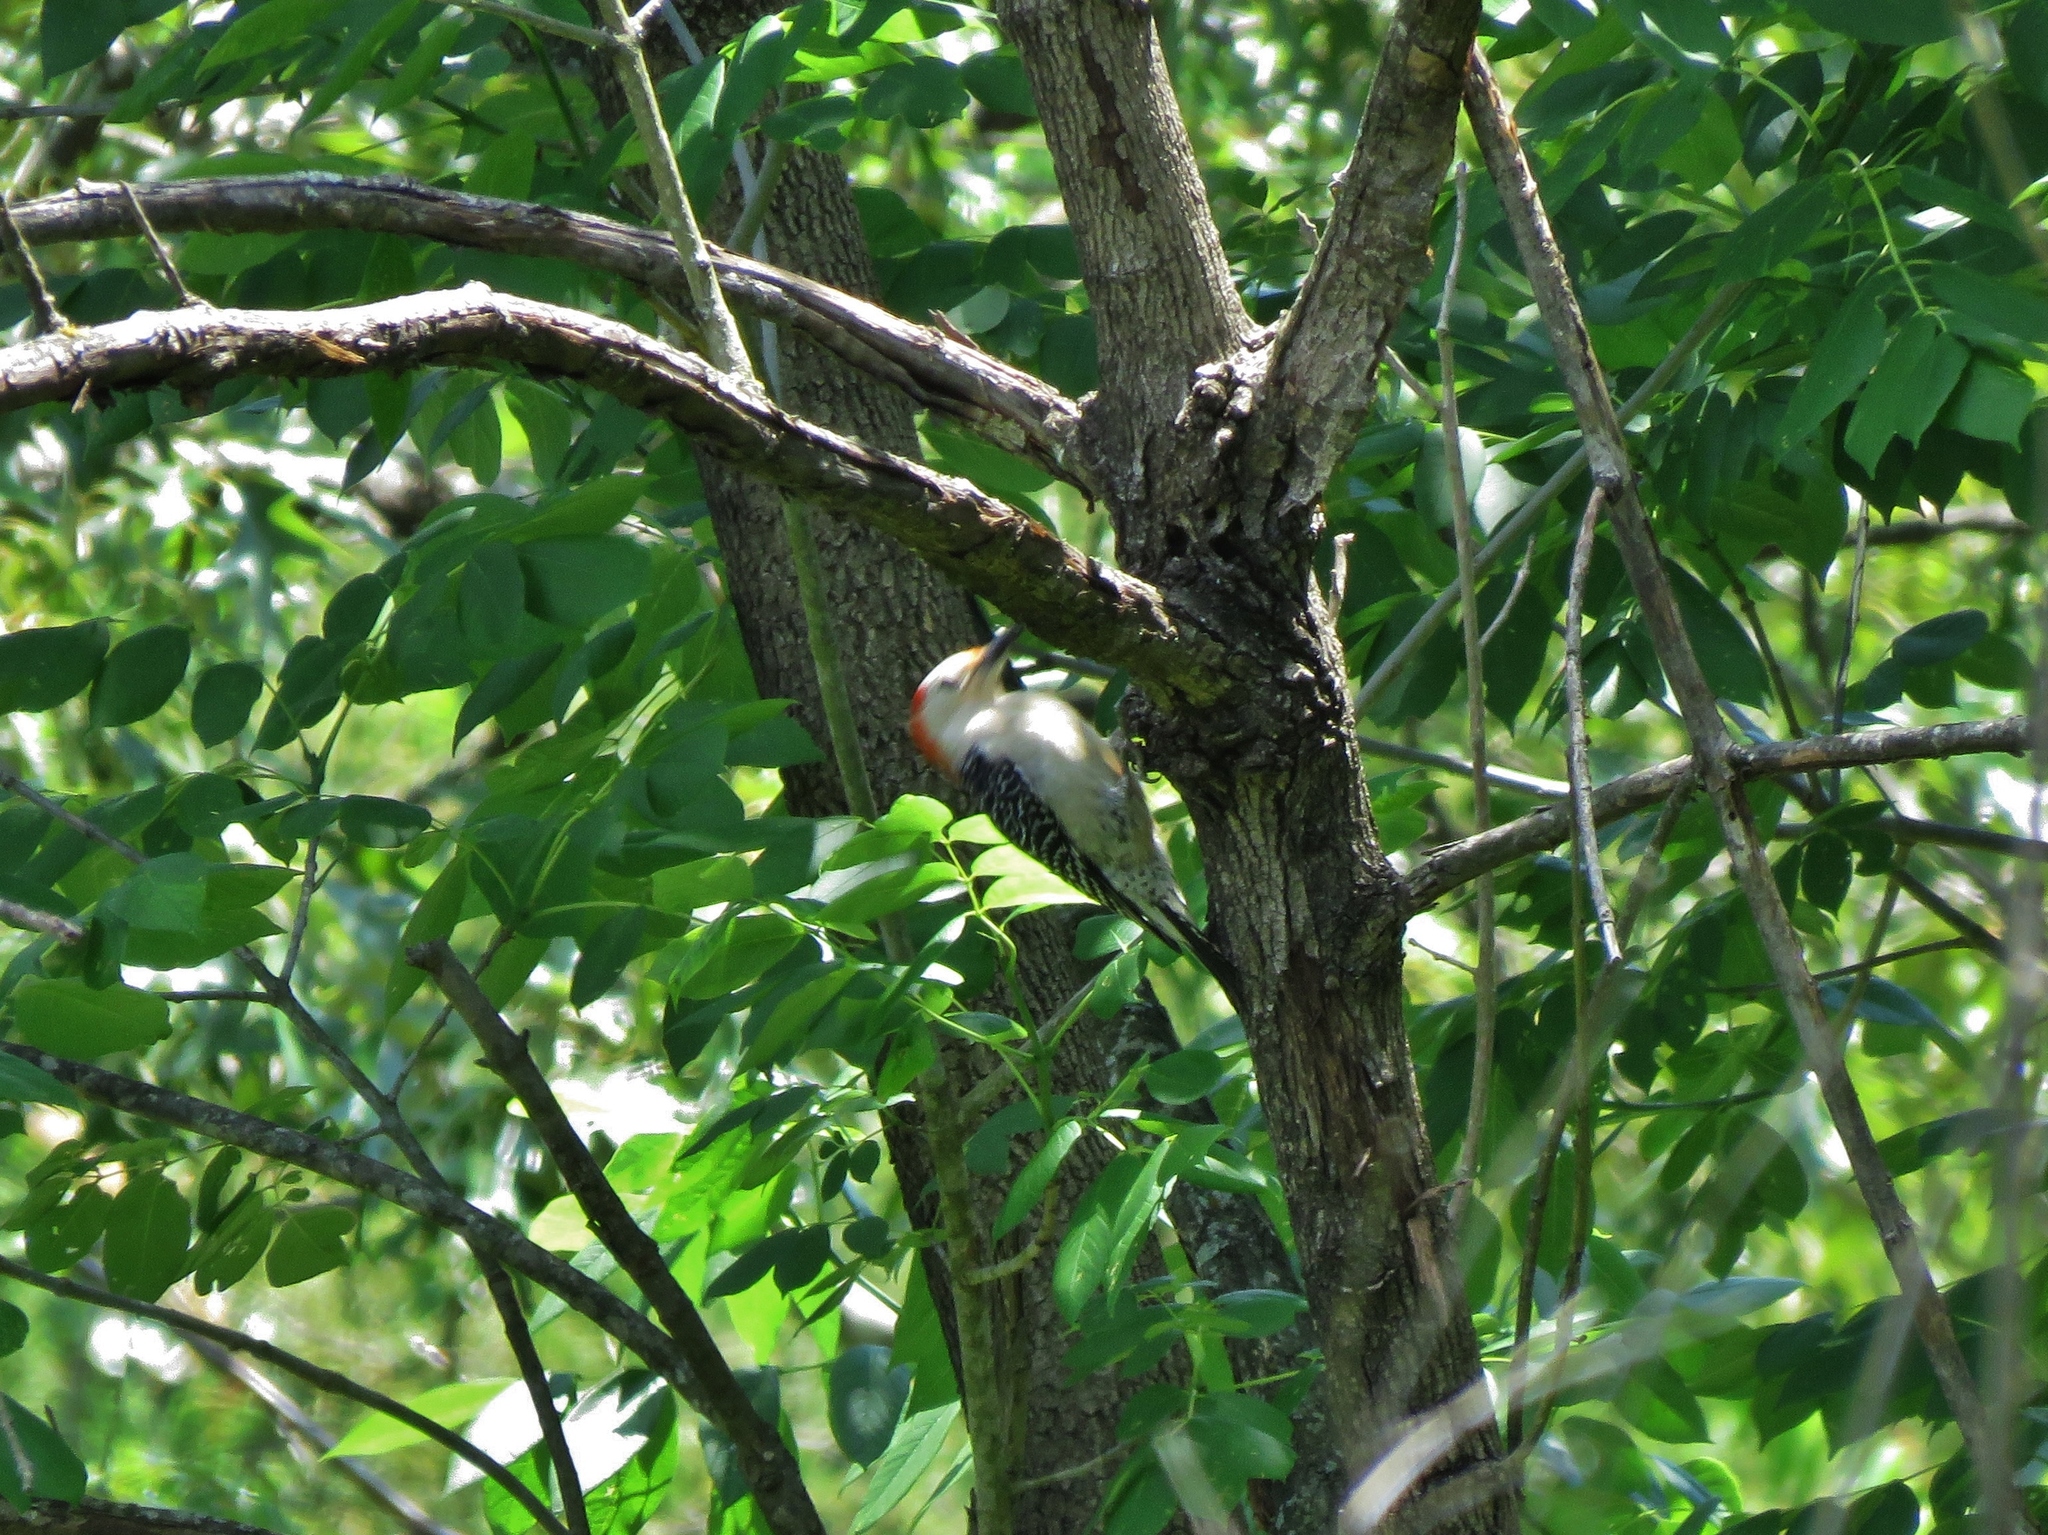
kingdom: Animalia
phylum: Chordata
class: Aves
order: Piciformes
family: Picidae
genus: Melanerpes
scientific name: Melanerpes carolinus
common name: Red-bellied woodpecker
